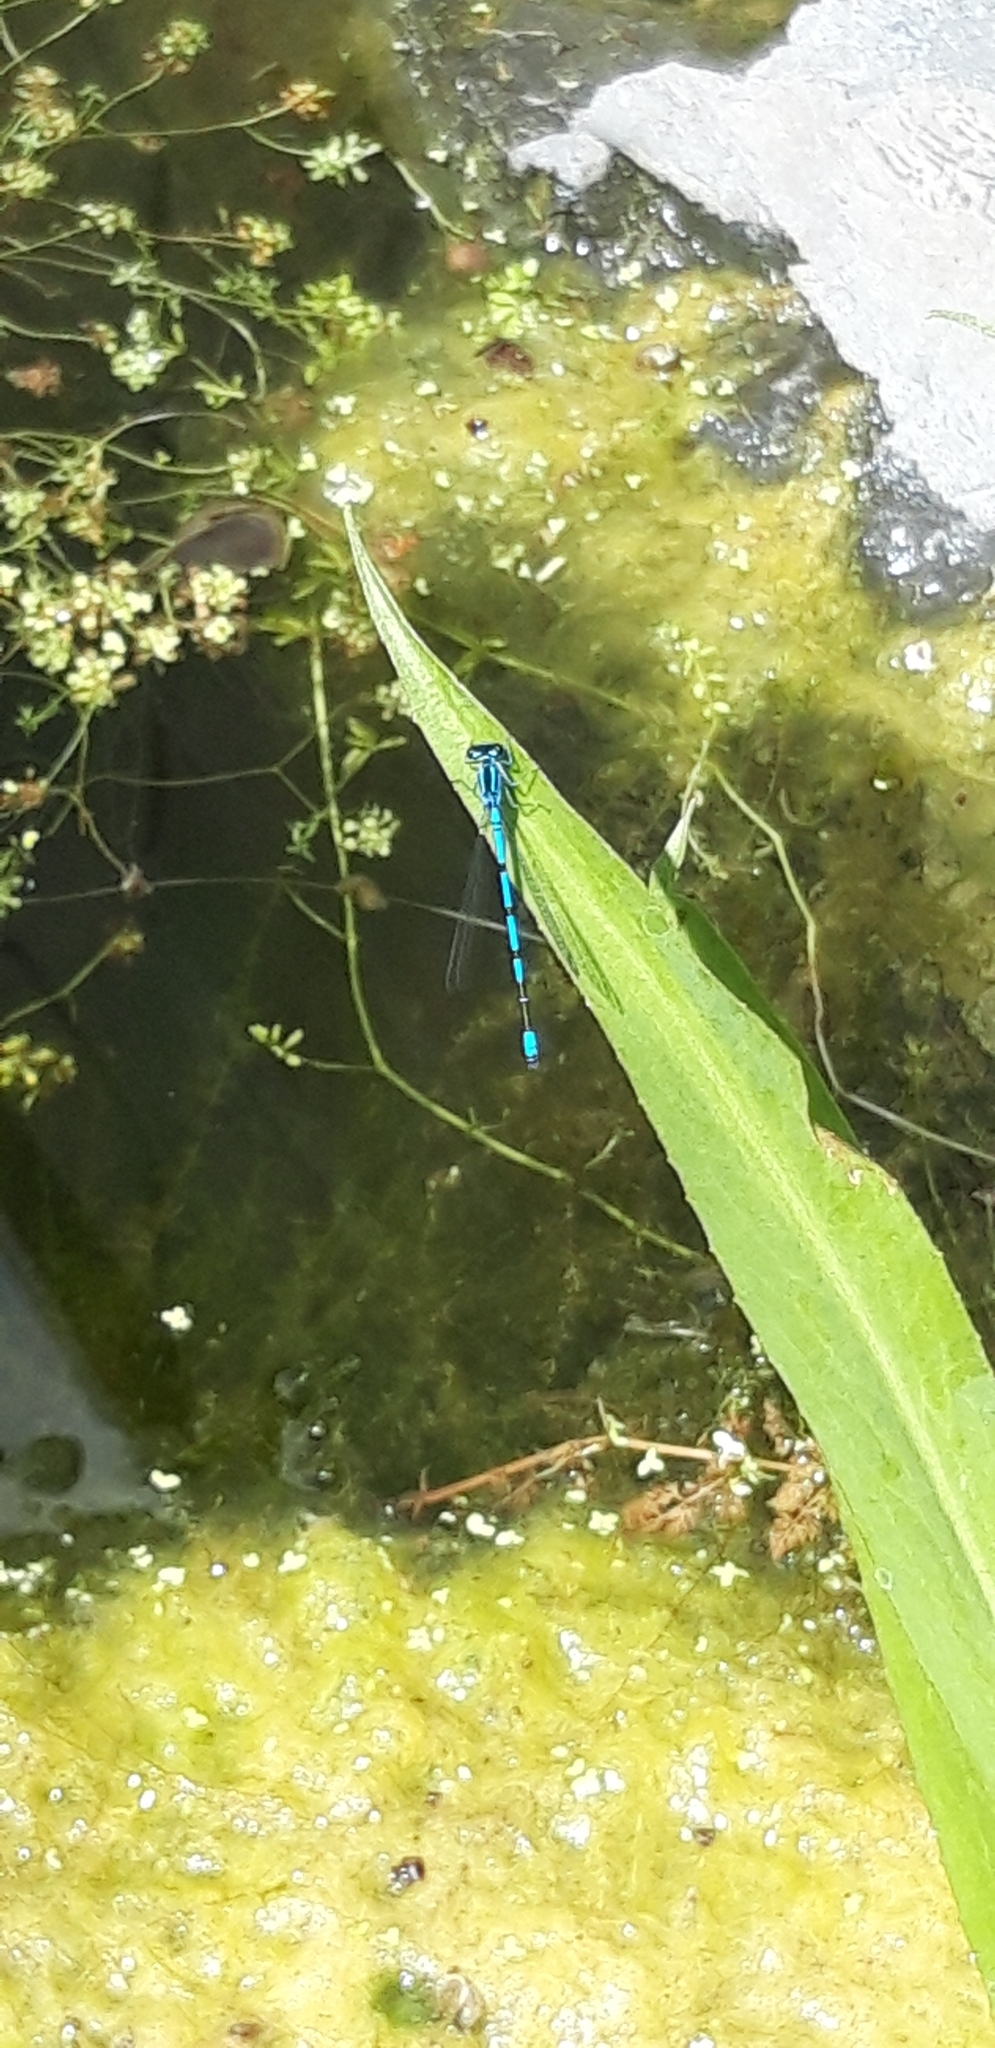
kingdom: Animalia
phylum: Arthropoda
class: Insecta
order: Odonata
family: Coenagrionidae
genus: Coenagrion
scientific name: Coenagrion puella
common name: Azure damselfly
